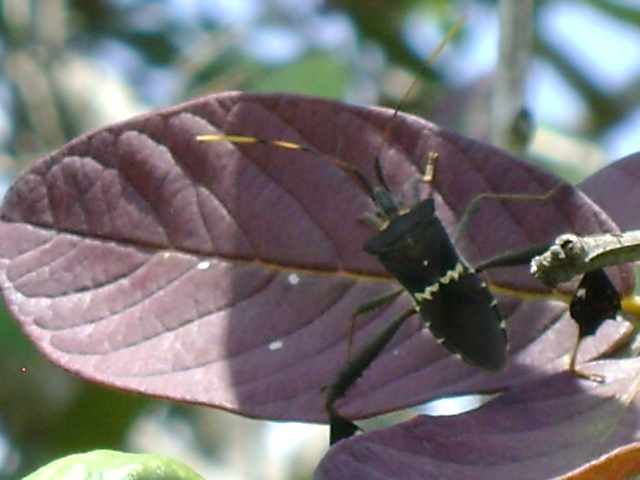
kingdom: Animalia
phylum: Arthropoda
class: Insecta
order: Hemiptera
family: Coreidae
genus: Leptoglossus
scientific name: Leptoglossus zonatus
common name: Large-legged bug
